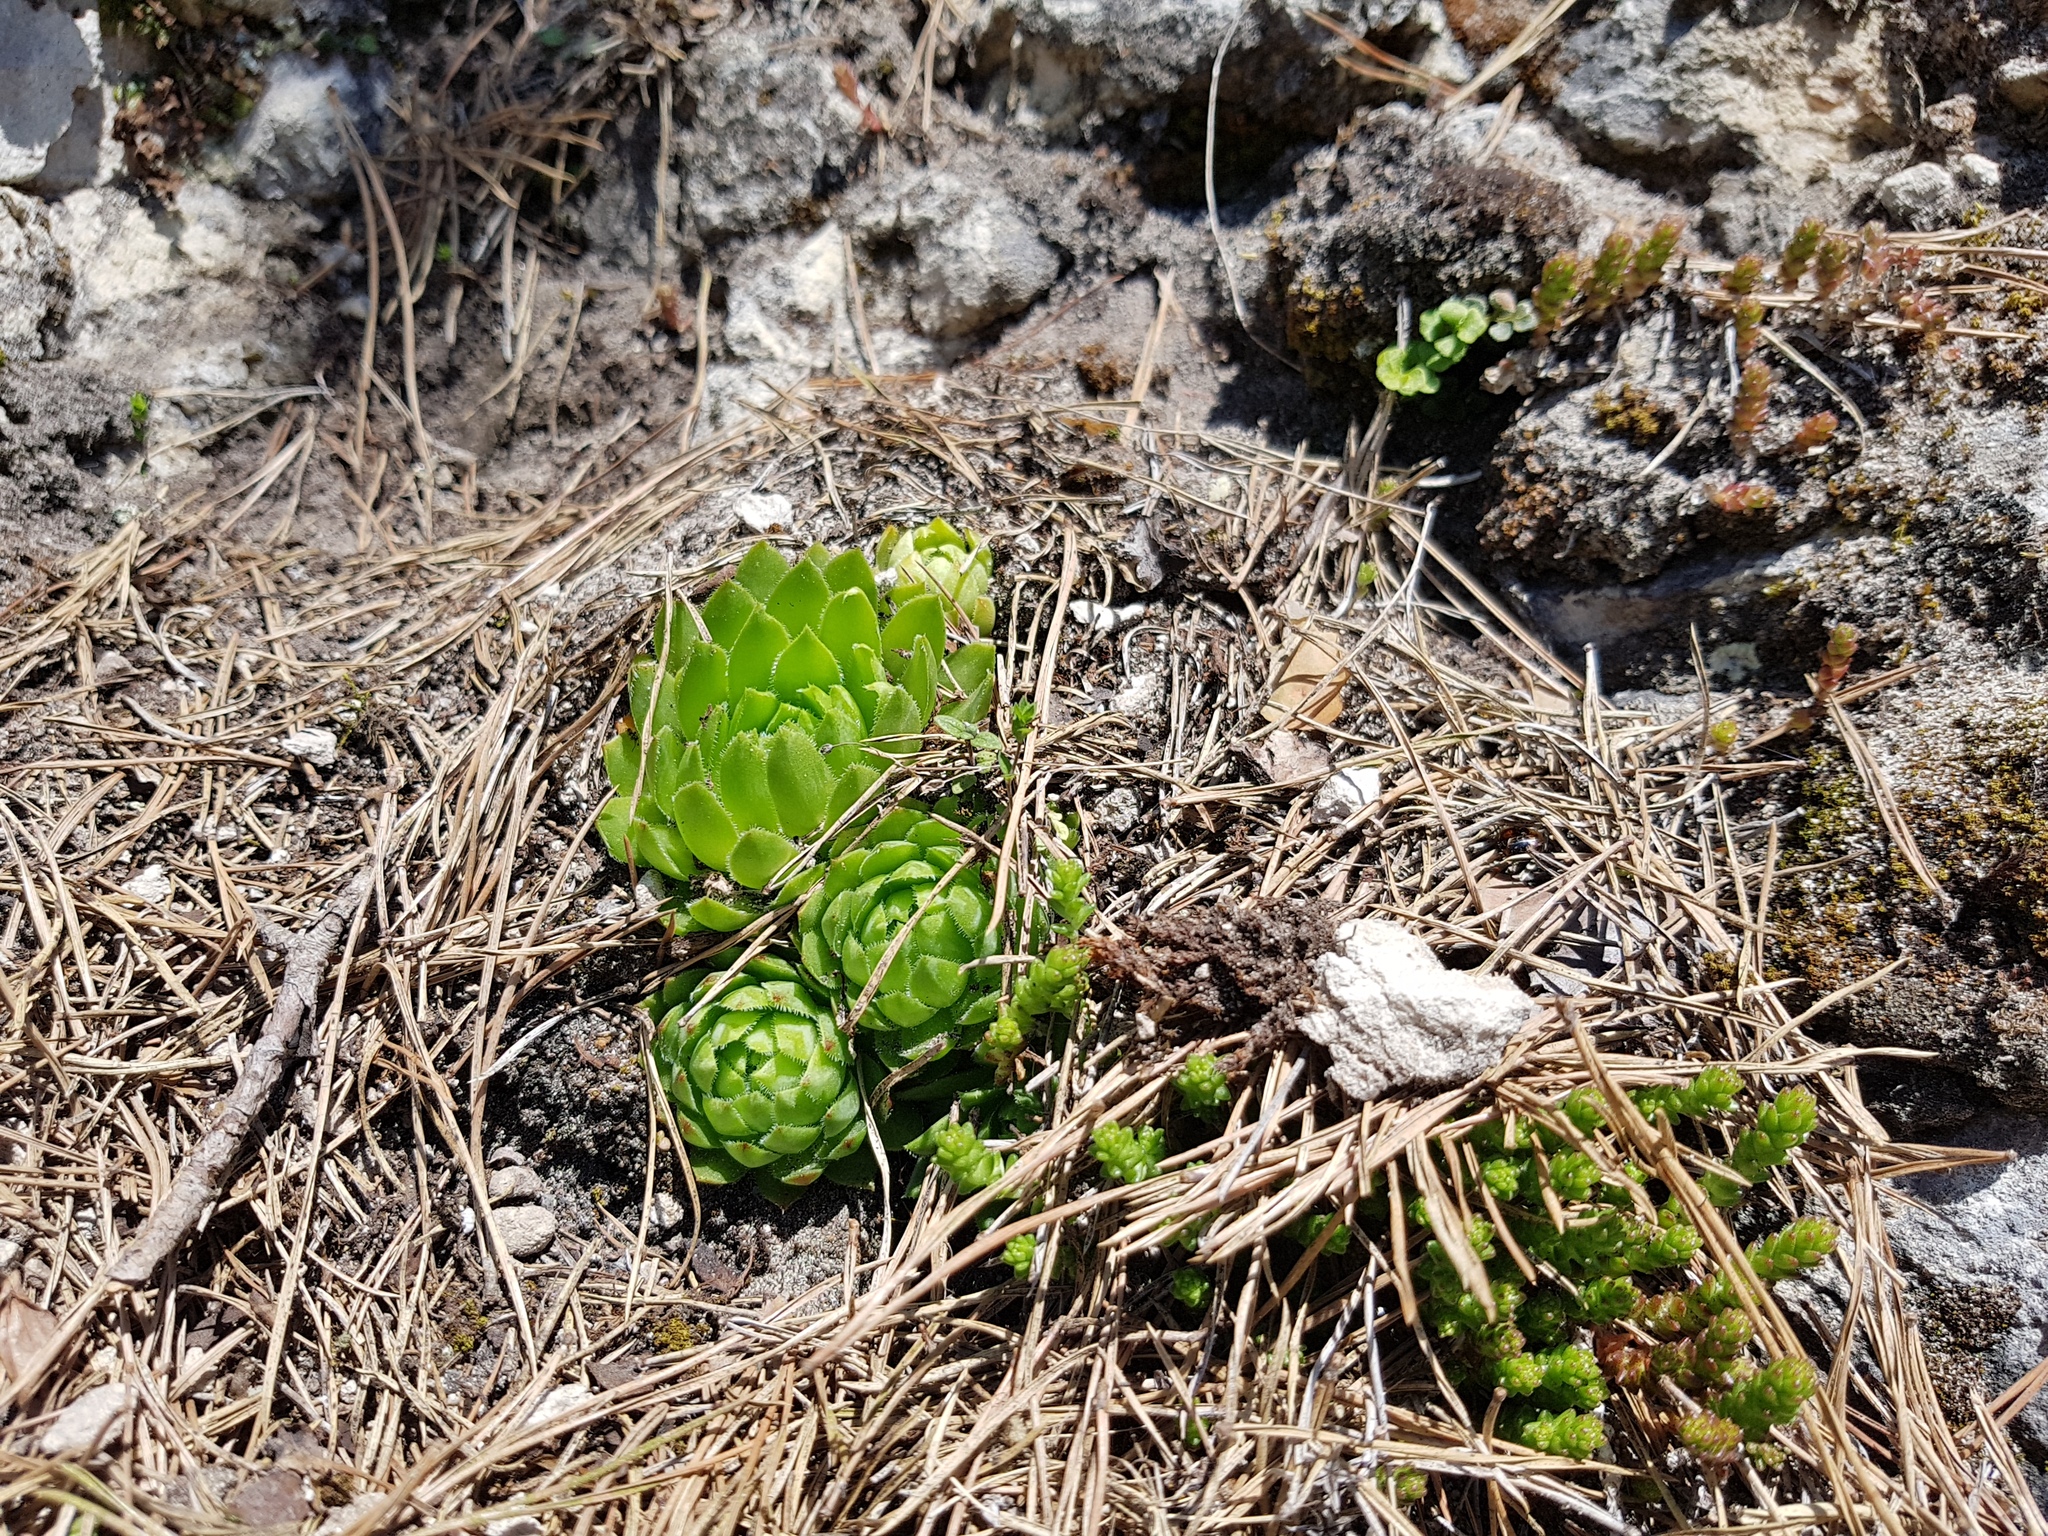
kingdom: Plantae
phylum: Tracheophyta
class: Magnoliopsida
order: Saxifragales
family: Crassulaceae
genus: Sempervivum
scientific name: Sempervivum globiferum
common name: Rolling hen-and-chicks
